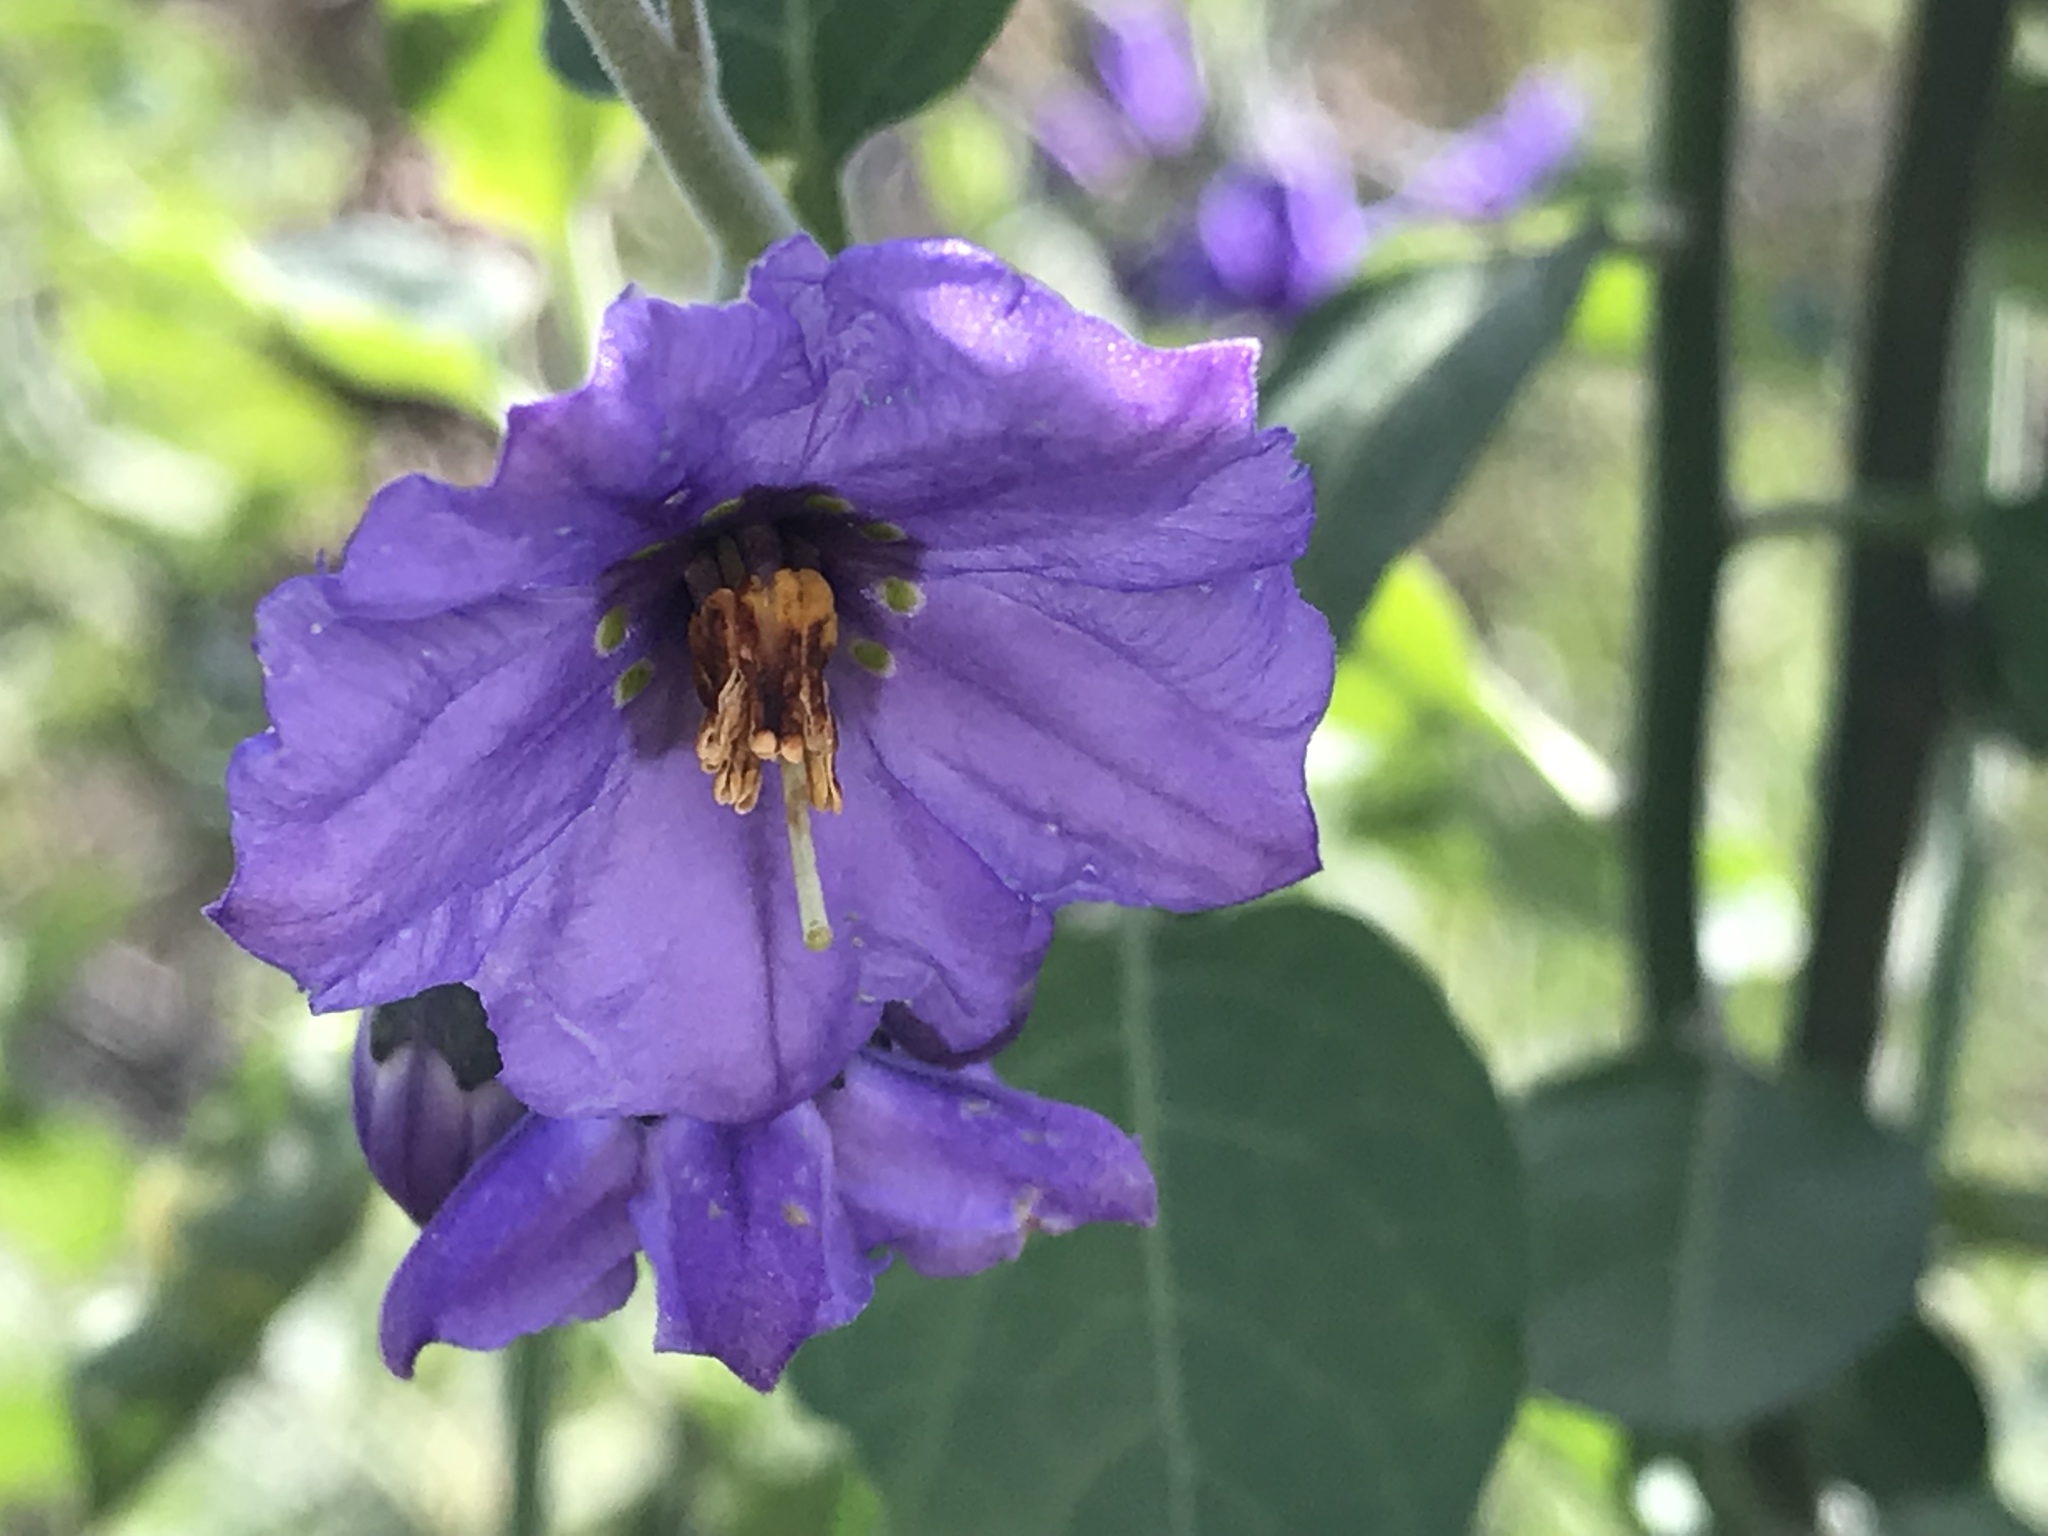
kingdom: Plantae
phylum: Tracheophyta
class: Magnoliopsida
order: Solanales
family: Solanaceae
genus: Solanum
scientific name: Solanum umbelliferum
